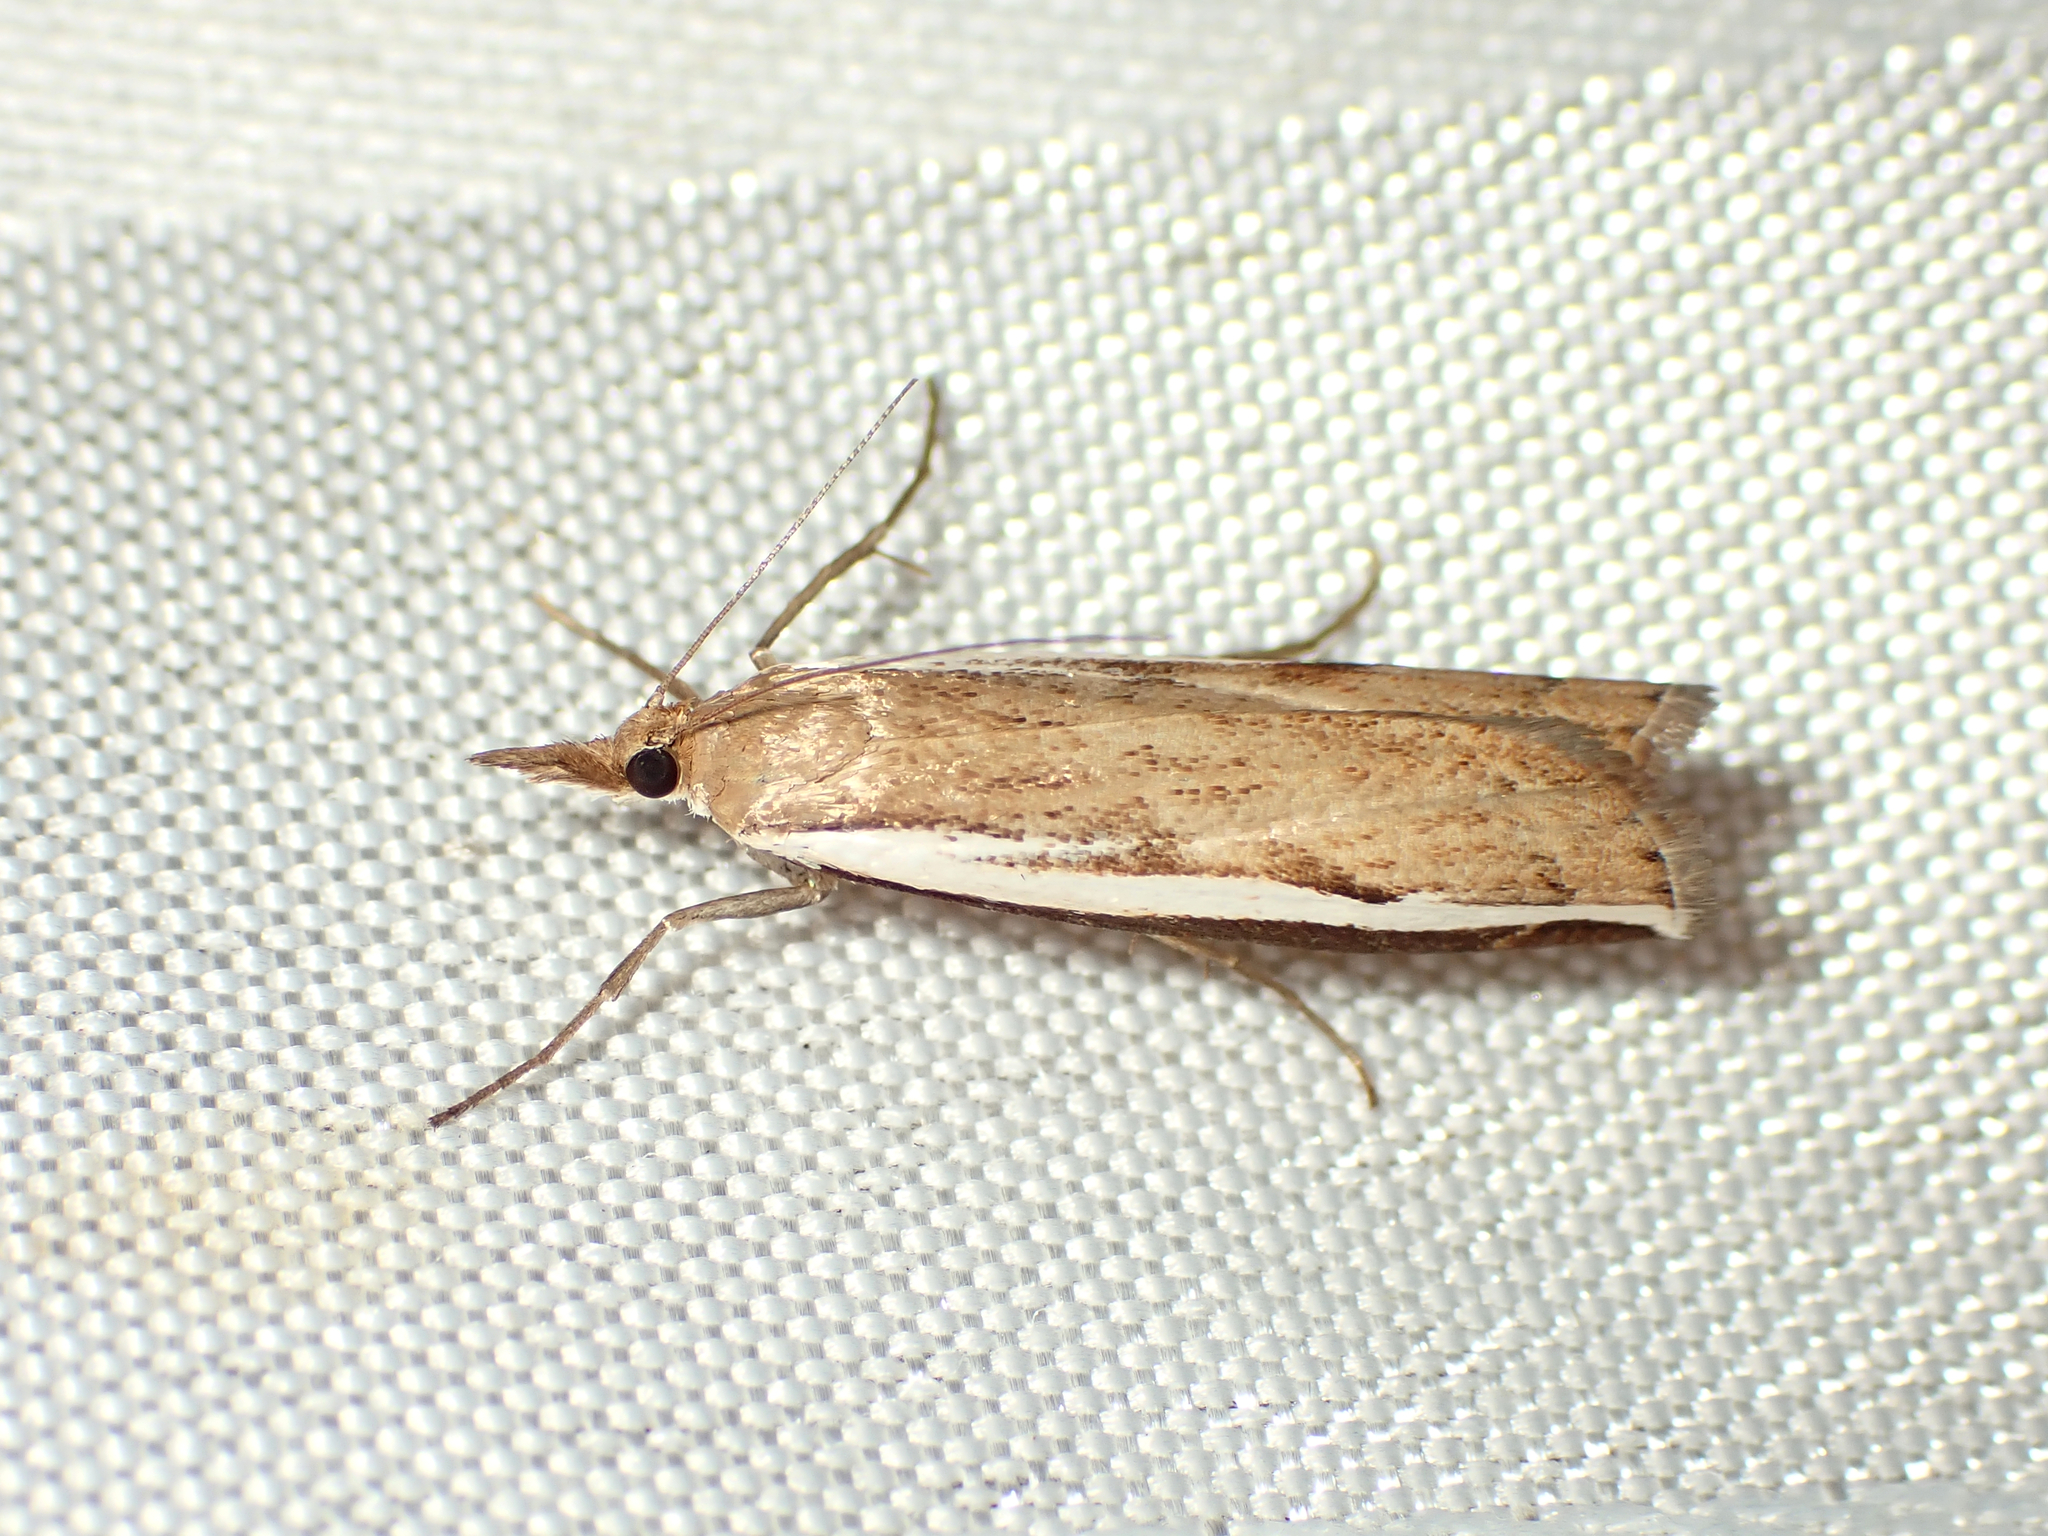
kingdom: Animalia
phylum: Arthropoda
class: Insecta
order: Lepidoptera
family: Crambidae
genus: Orocrambus
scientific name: Orocrambus flexuosellus
